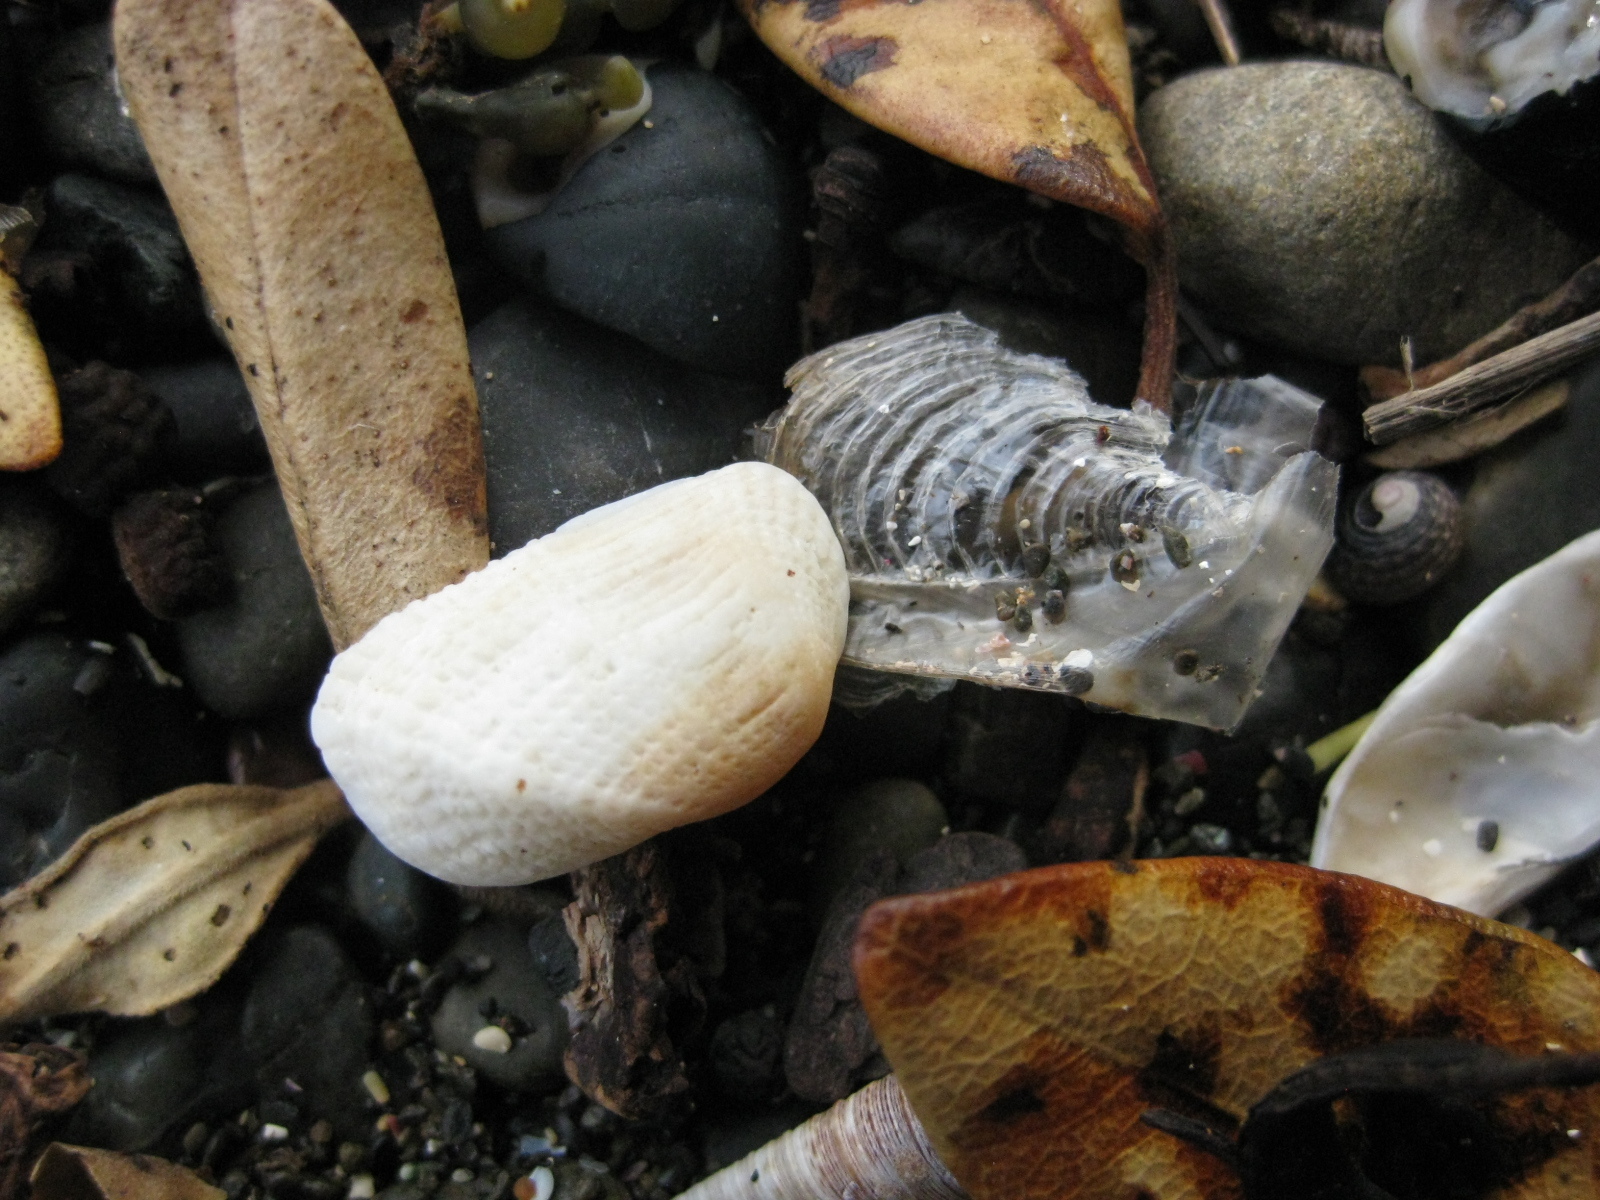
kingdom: Animalia
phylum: Cnidaria
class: Hydrozoa
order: Anthoathecata
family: Porpitidae
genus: Velella
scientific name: Velella velella
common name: By-the-wind-sailor
